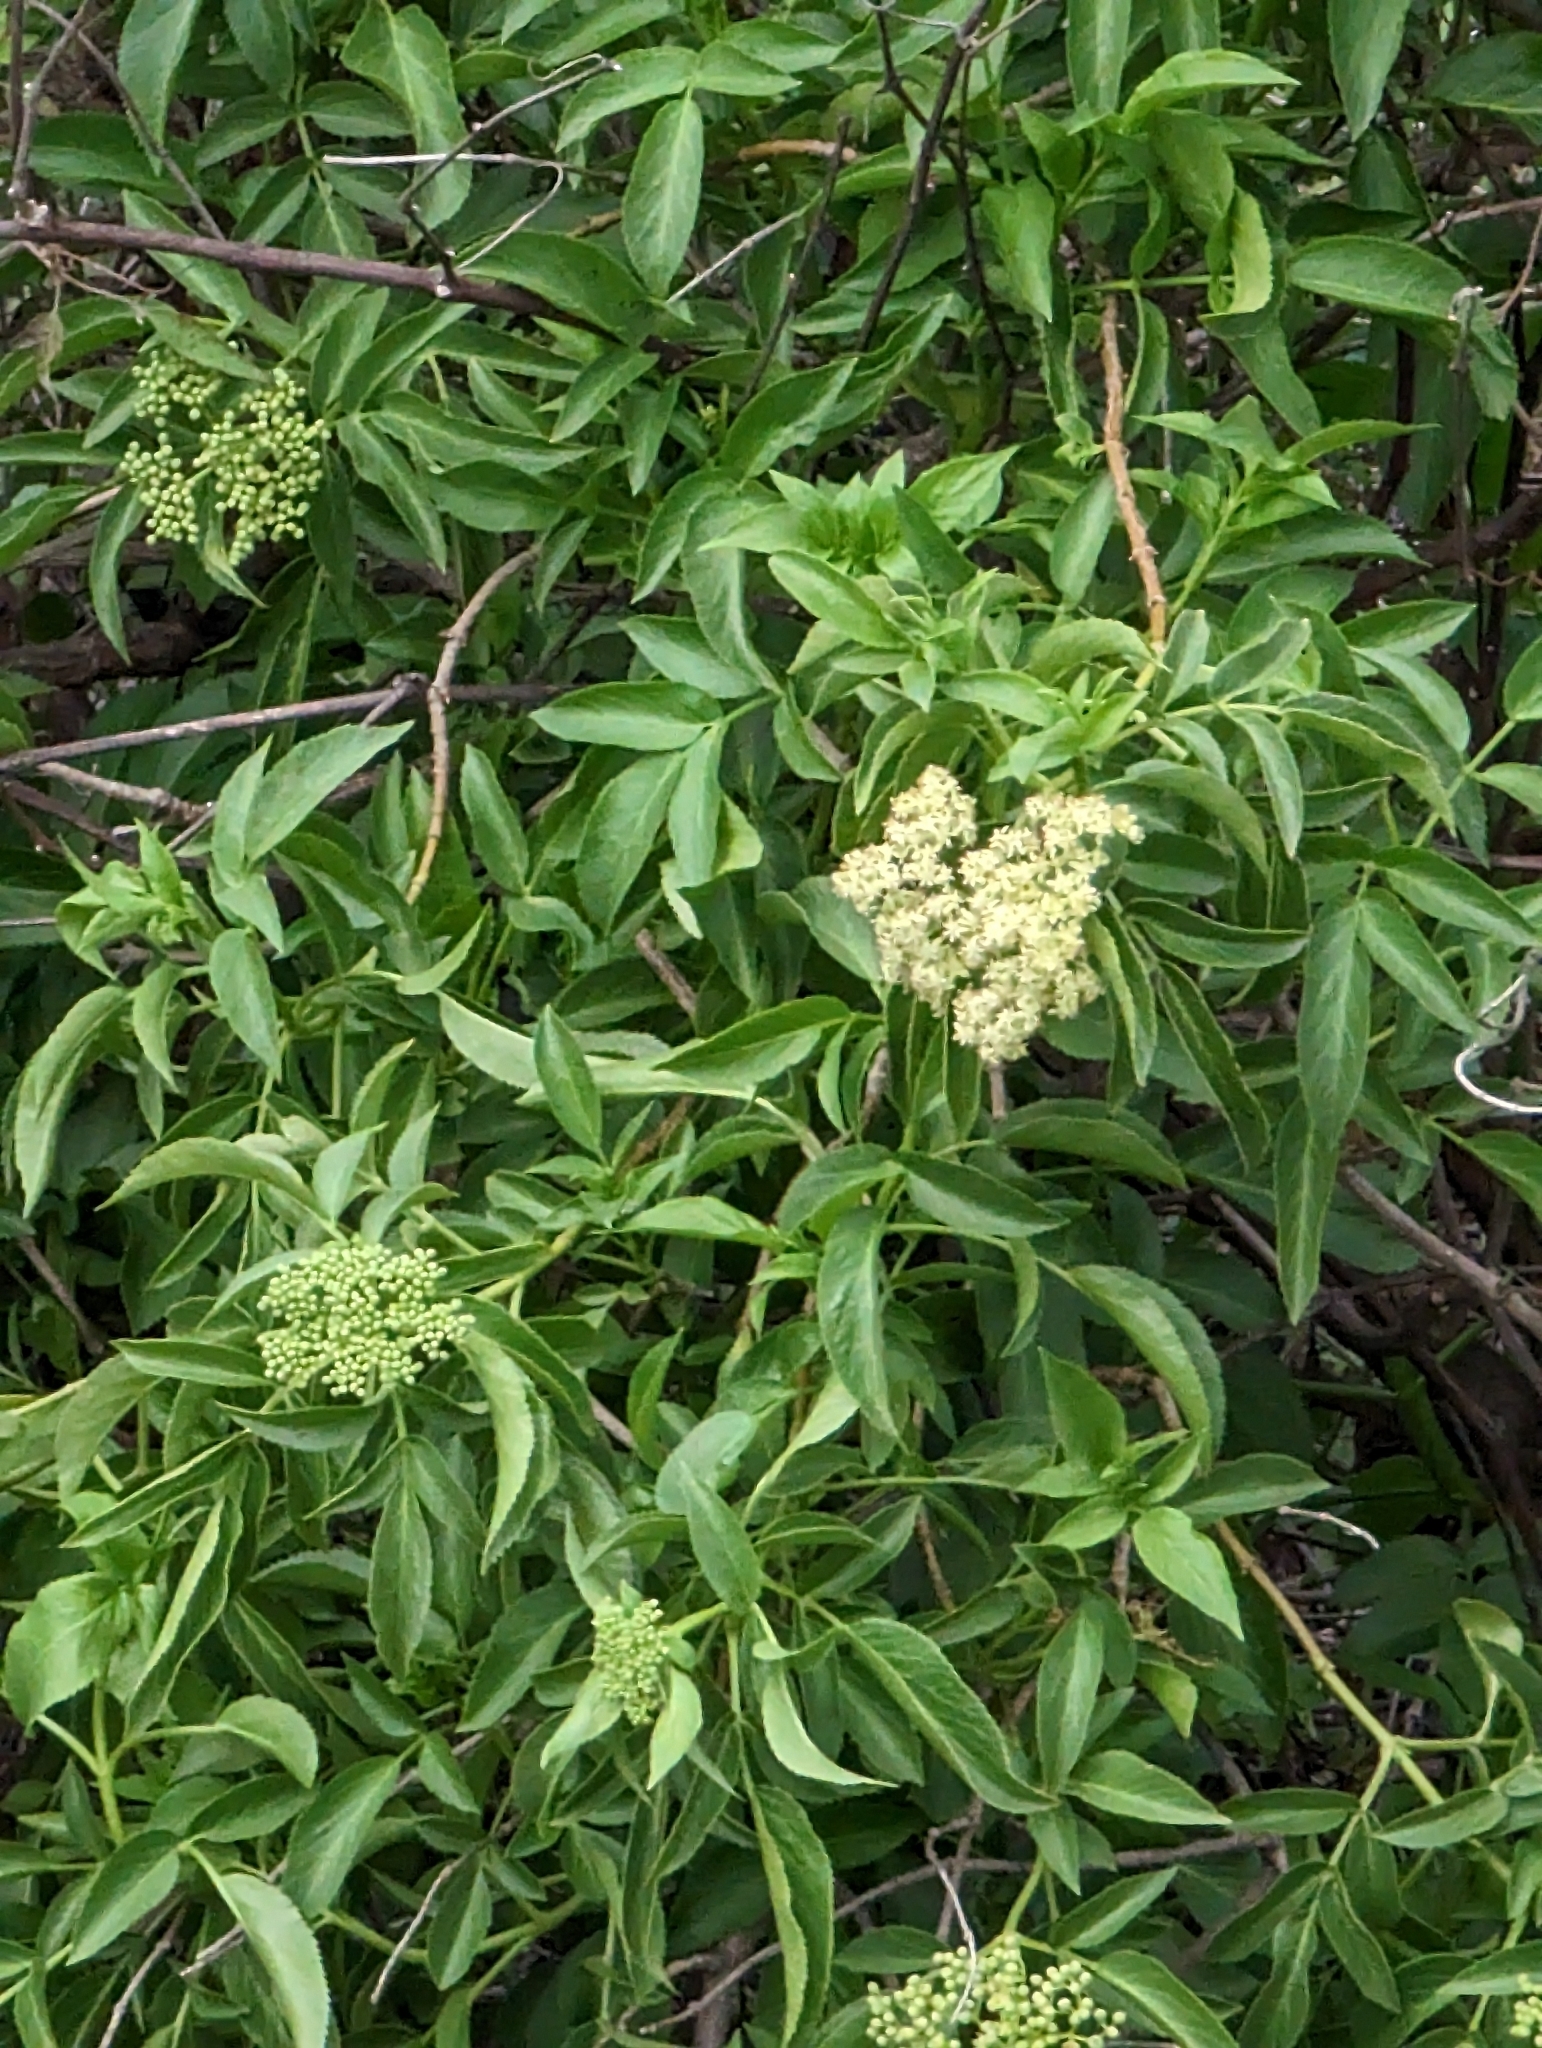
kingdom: Plantae
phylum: Tracheophyta
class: Magnoliopsida
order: Dipsacales
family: Viburnaceae
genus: Sambucus
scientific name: Sambucus cerulea
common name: Blue elder
